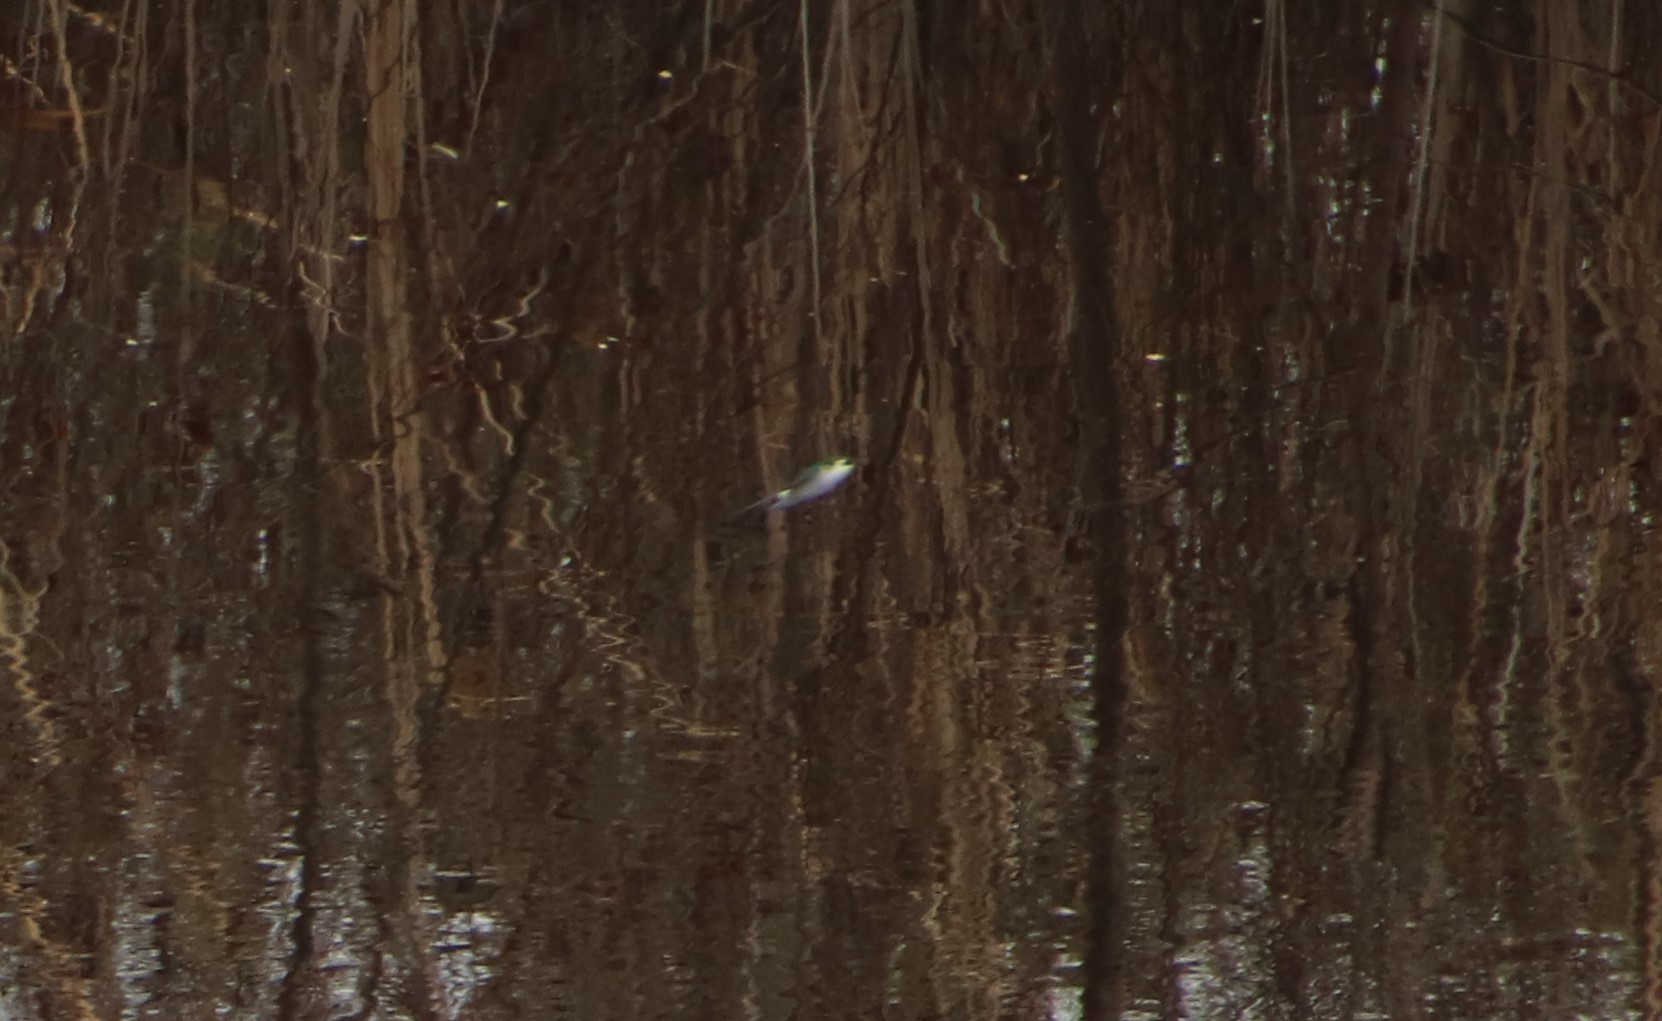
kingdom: Animalia
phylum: Chordata
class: Aves
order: Passeriformes
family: Hirundinidae
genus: Tachycineta
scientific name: Tachycineta thalassina
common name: Violet-green swallow
